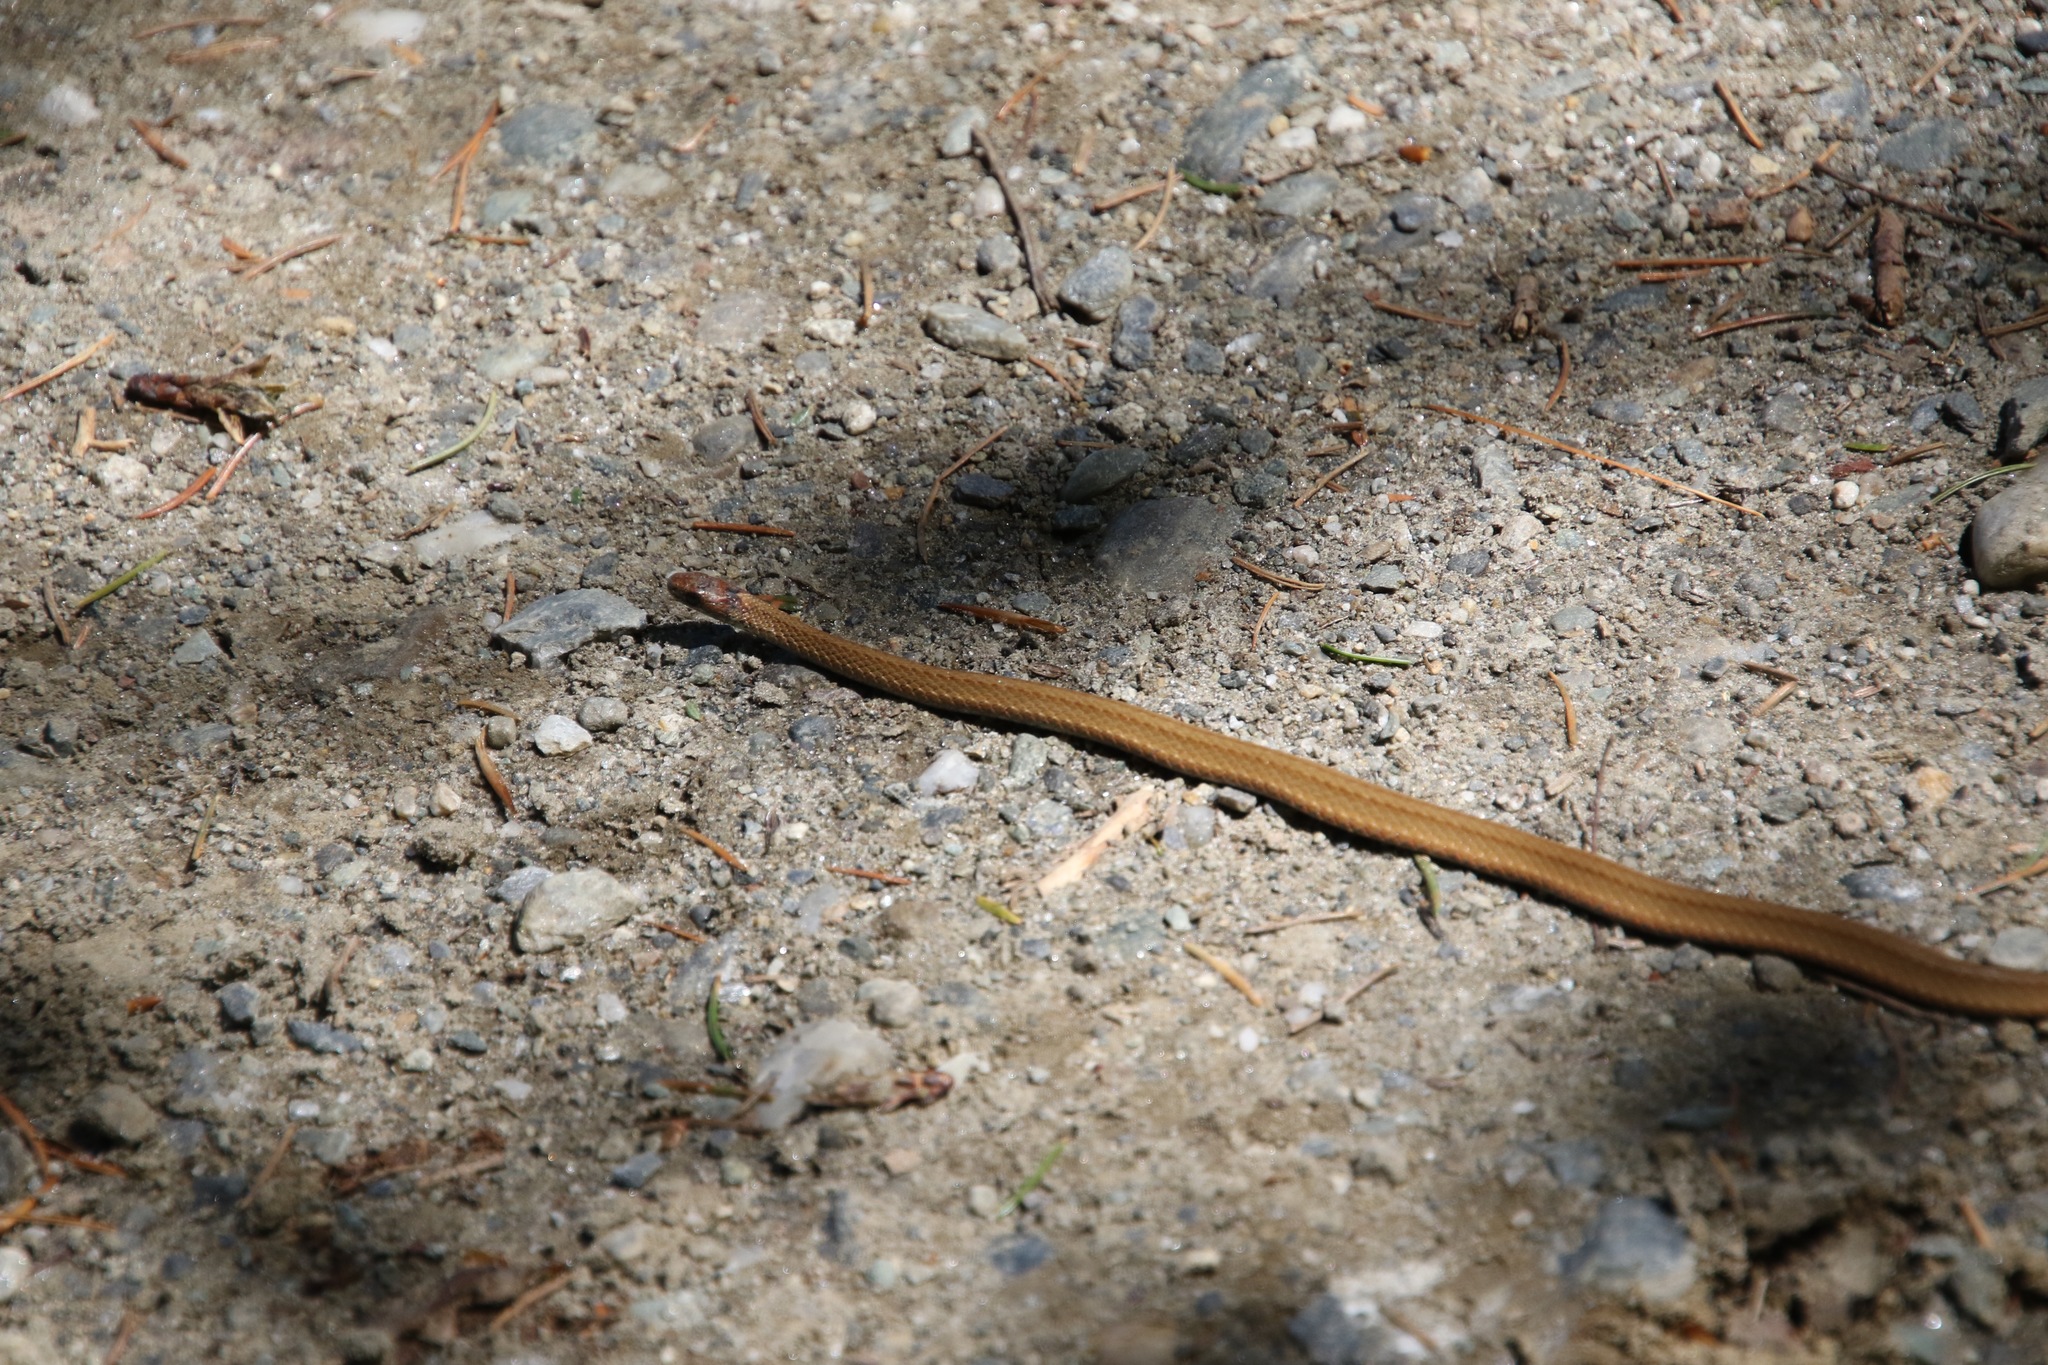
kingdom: Animalia
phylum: Chordata
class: Squamata
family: Colubridae
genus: Storeria
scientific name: Storeria occipitomaculata
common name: Redbelly snake
